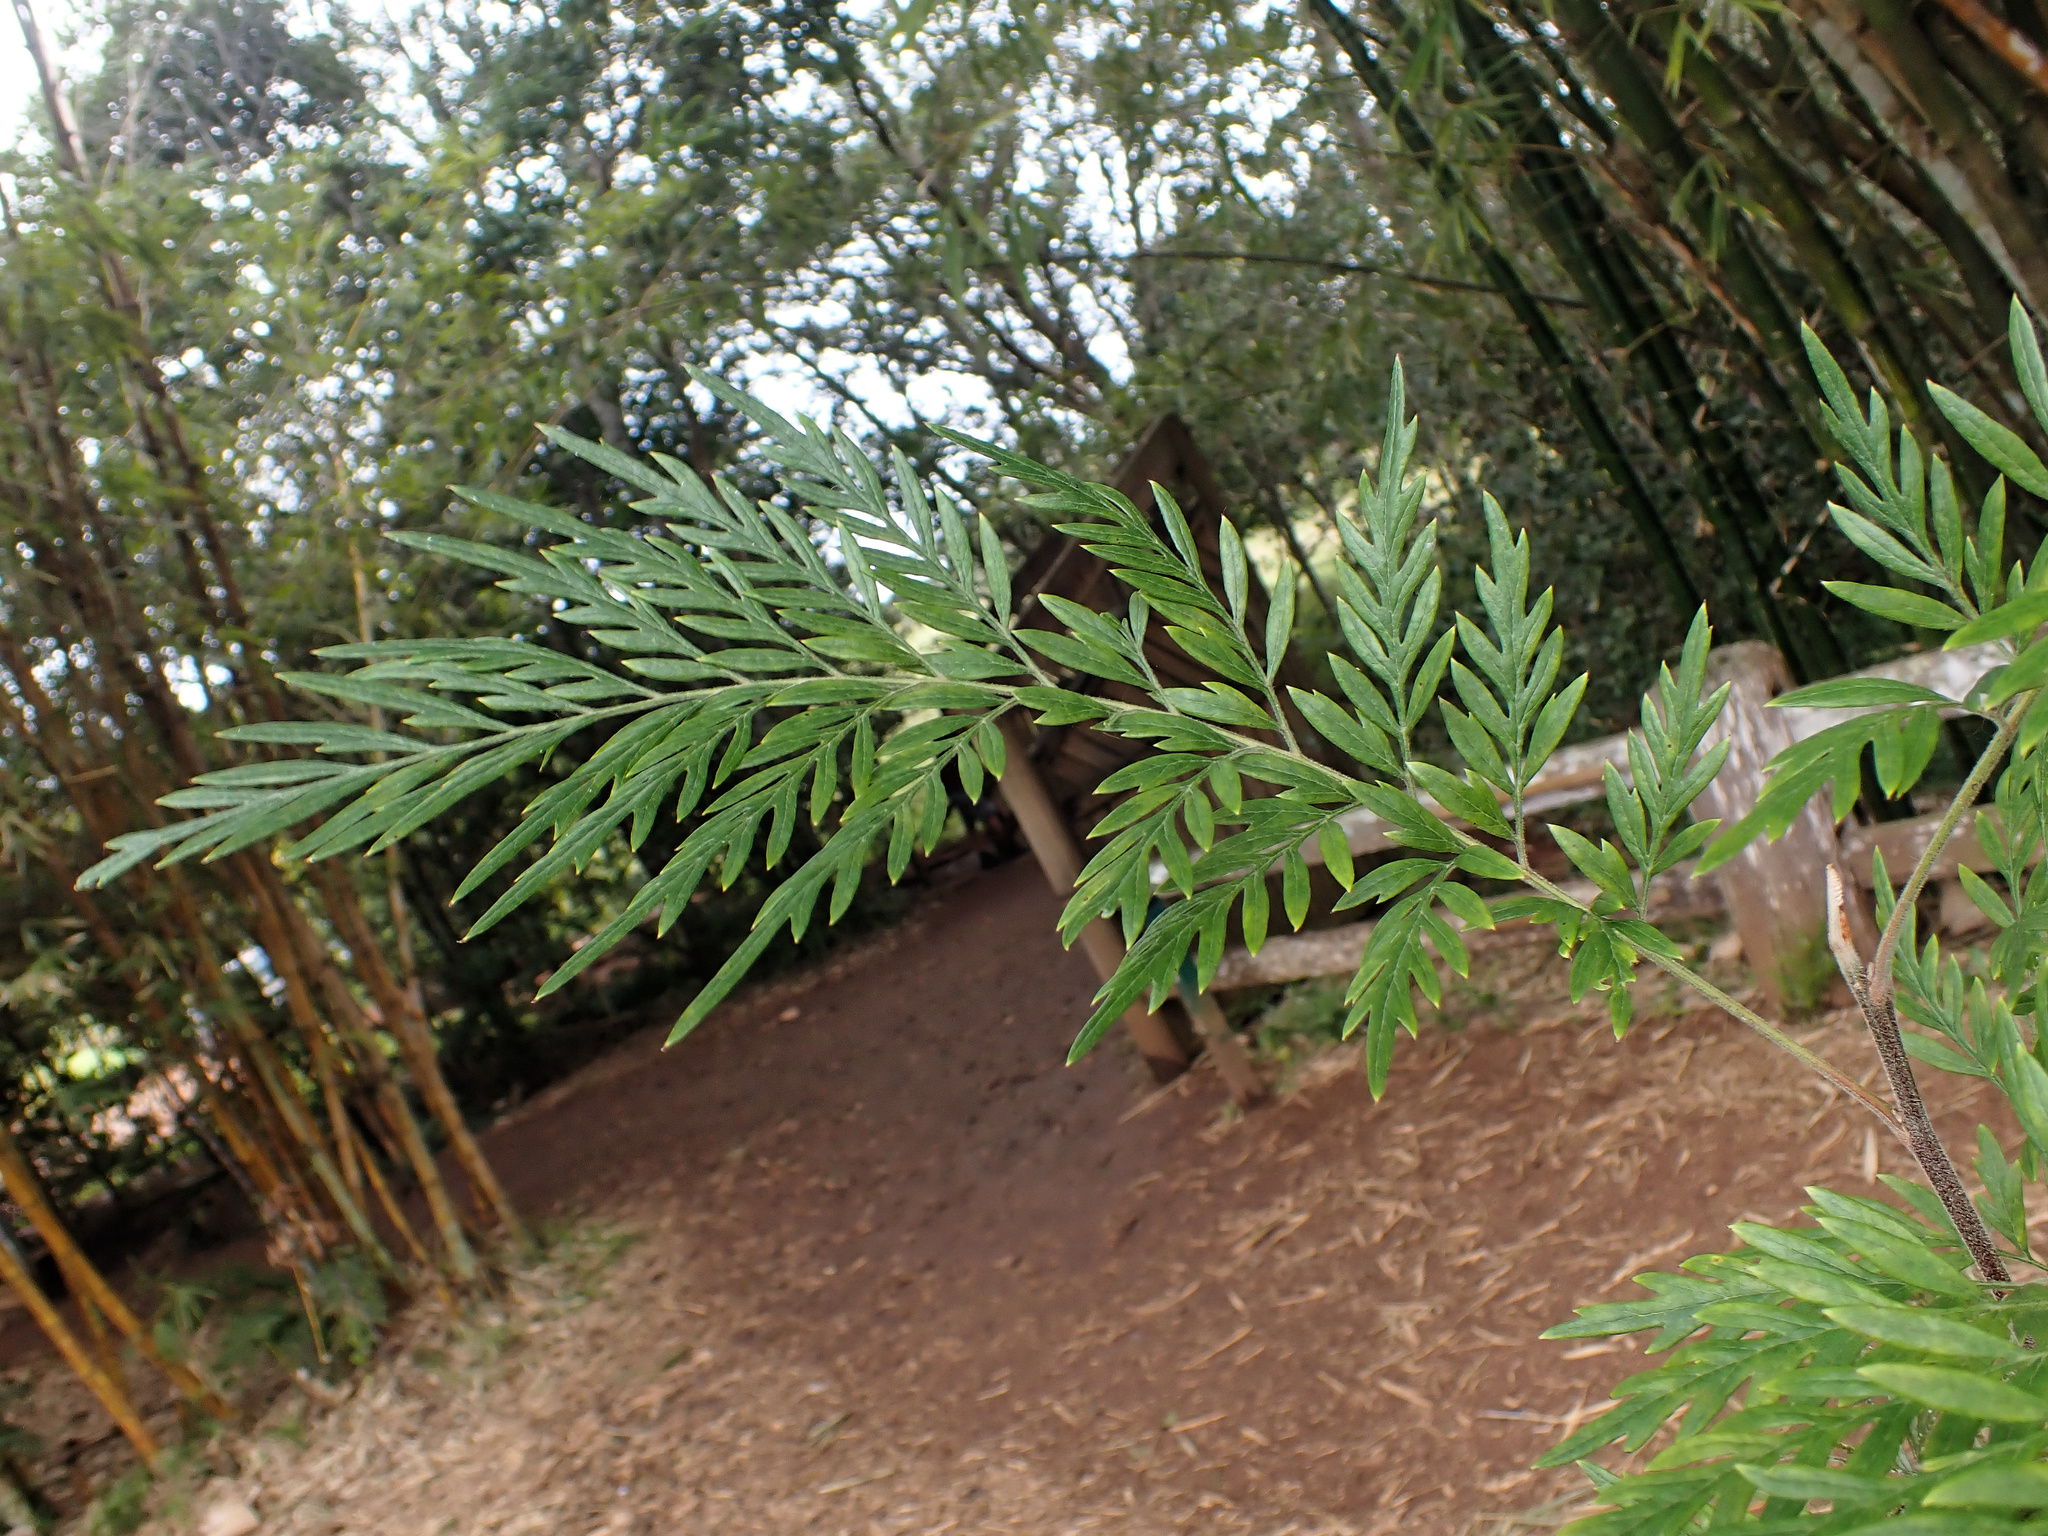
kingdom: Plantae
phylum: Tracheophyta
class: Magnoliopsida
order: Proteales
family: Proteaceae
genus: Grevillea
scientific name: Grevillea robusta
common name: Silkoak
